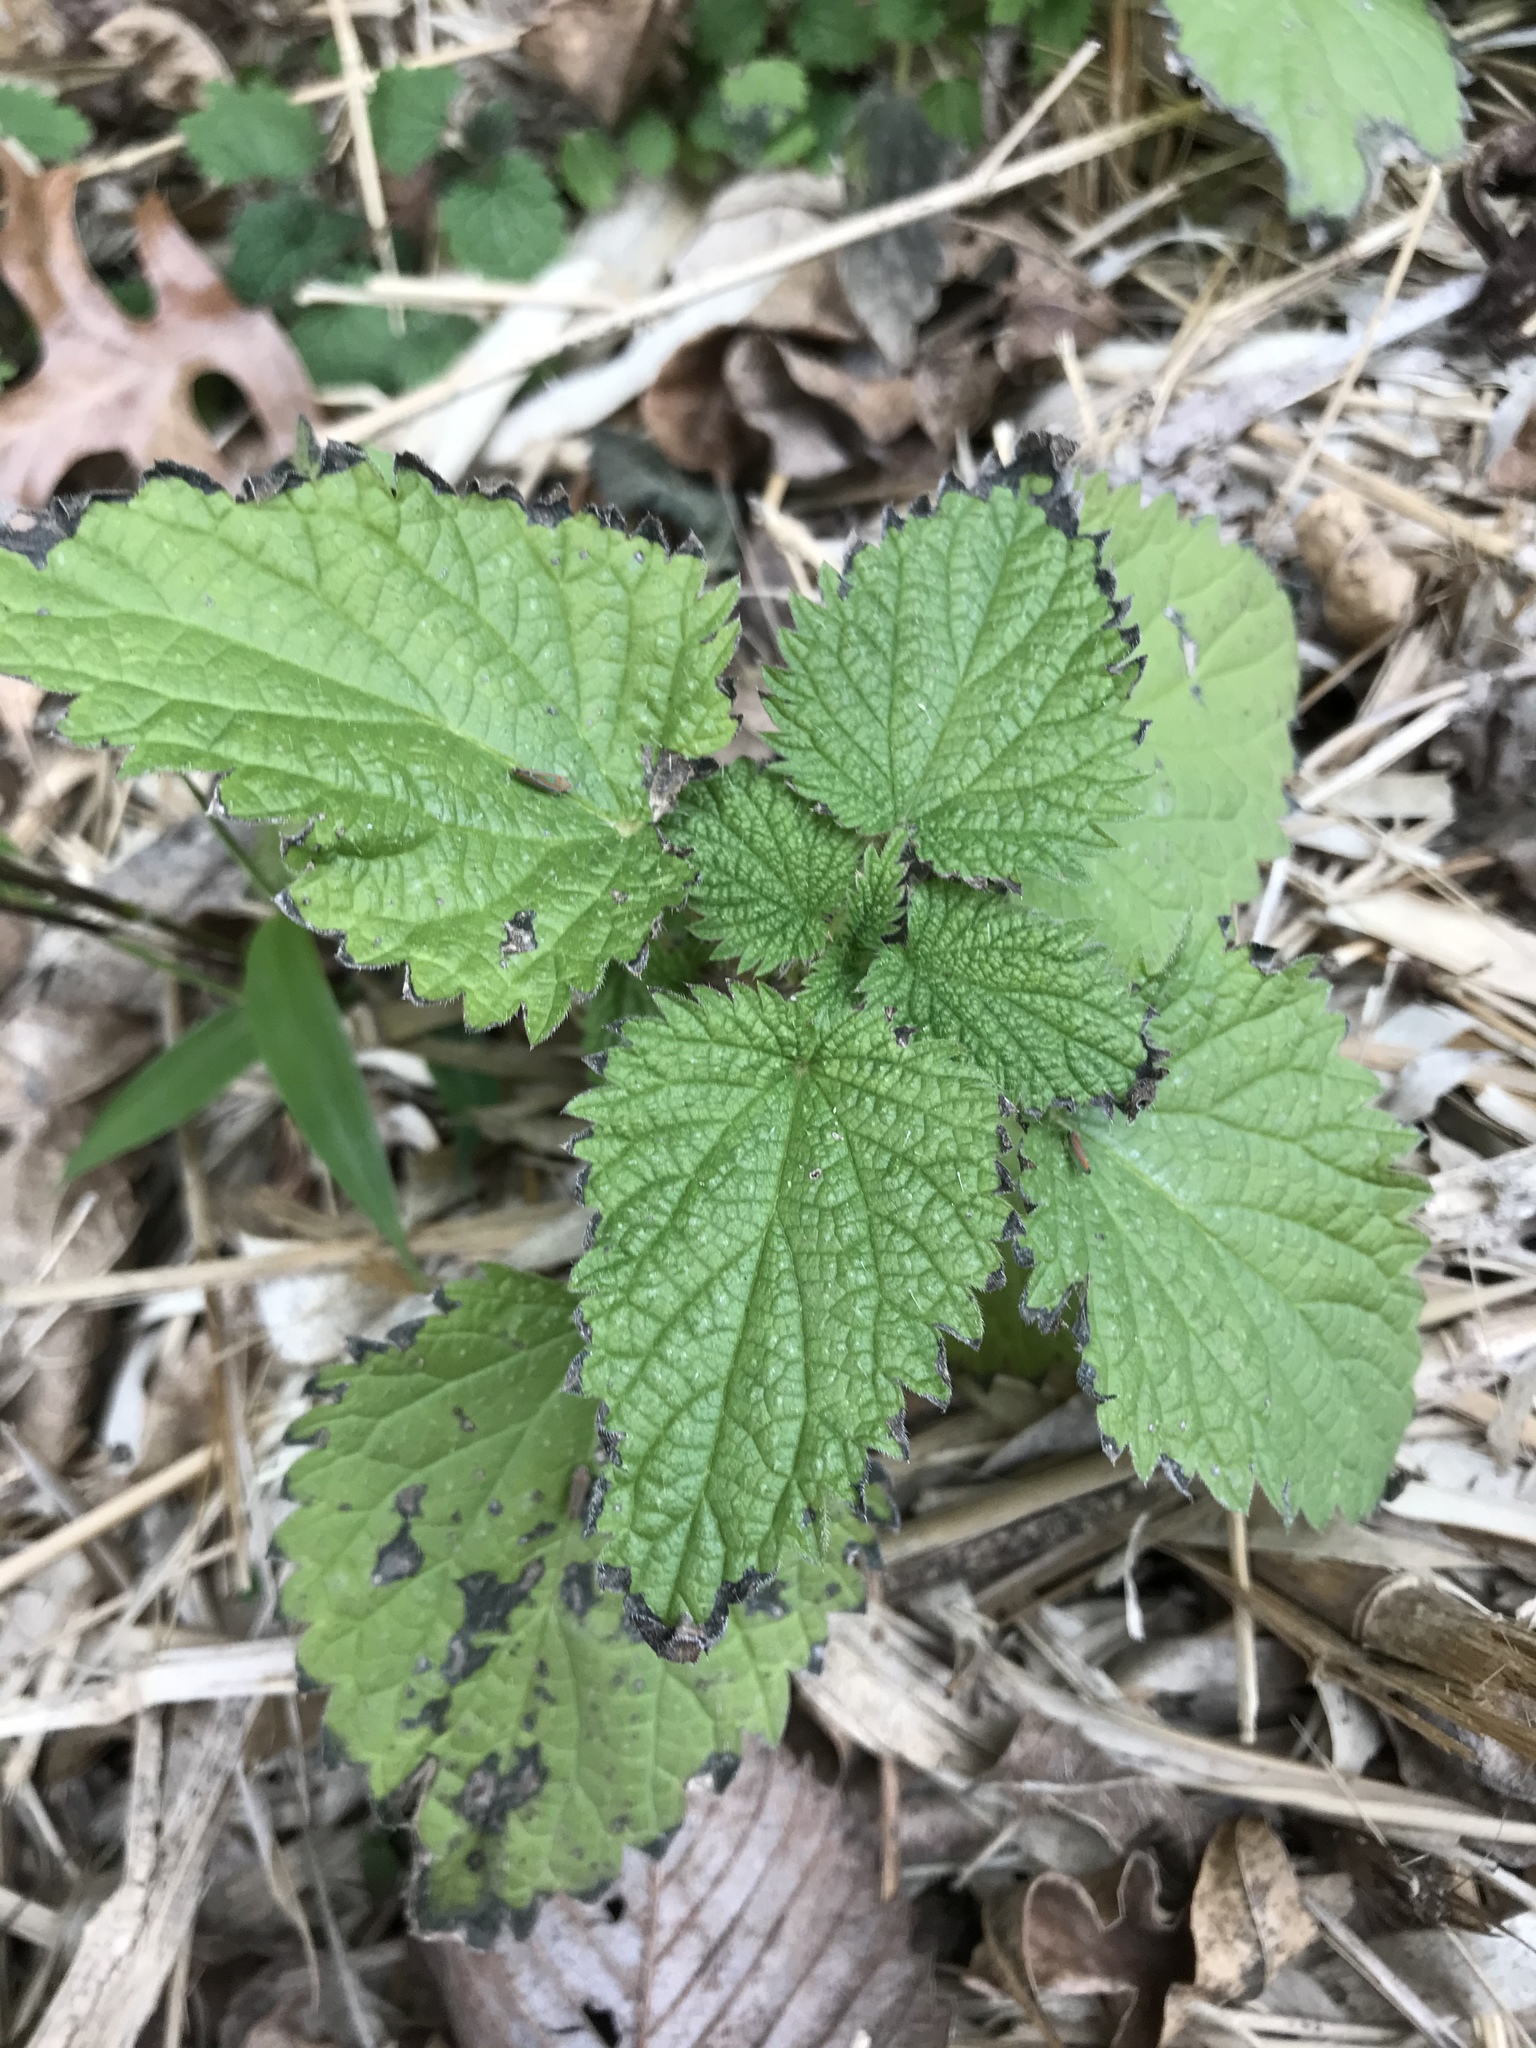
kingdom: Plantae
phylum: Tracheophyta
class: Magnoliopsida
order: Rosales
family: Urticaceae
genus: Urtica
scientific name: Urtica dioica
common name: Common nettle
